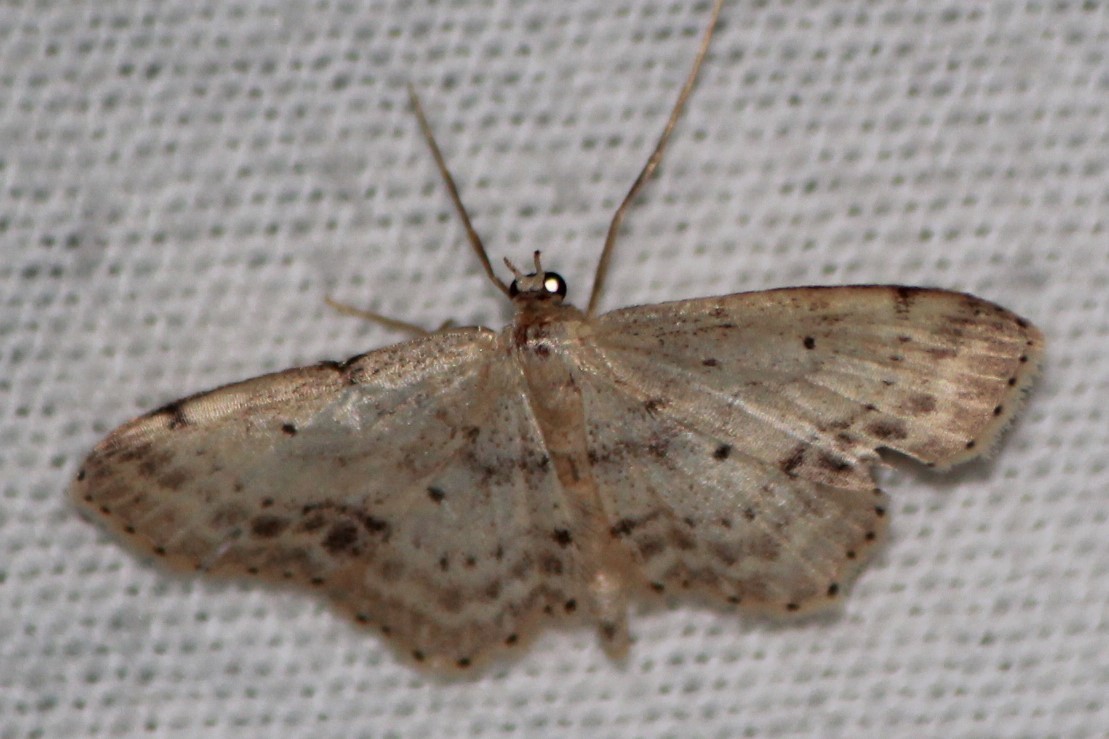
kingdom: Animalia
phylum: Arthropoda
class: Insecta
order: Lepidoptera
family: Geometridae
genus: Idaea
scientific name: Idaea dimidiata
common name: Single-dotted wave
